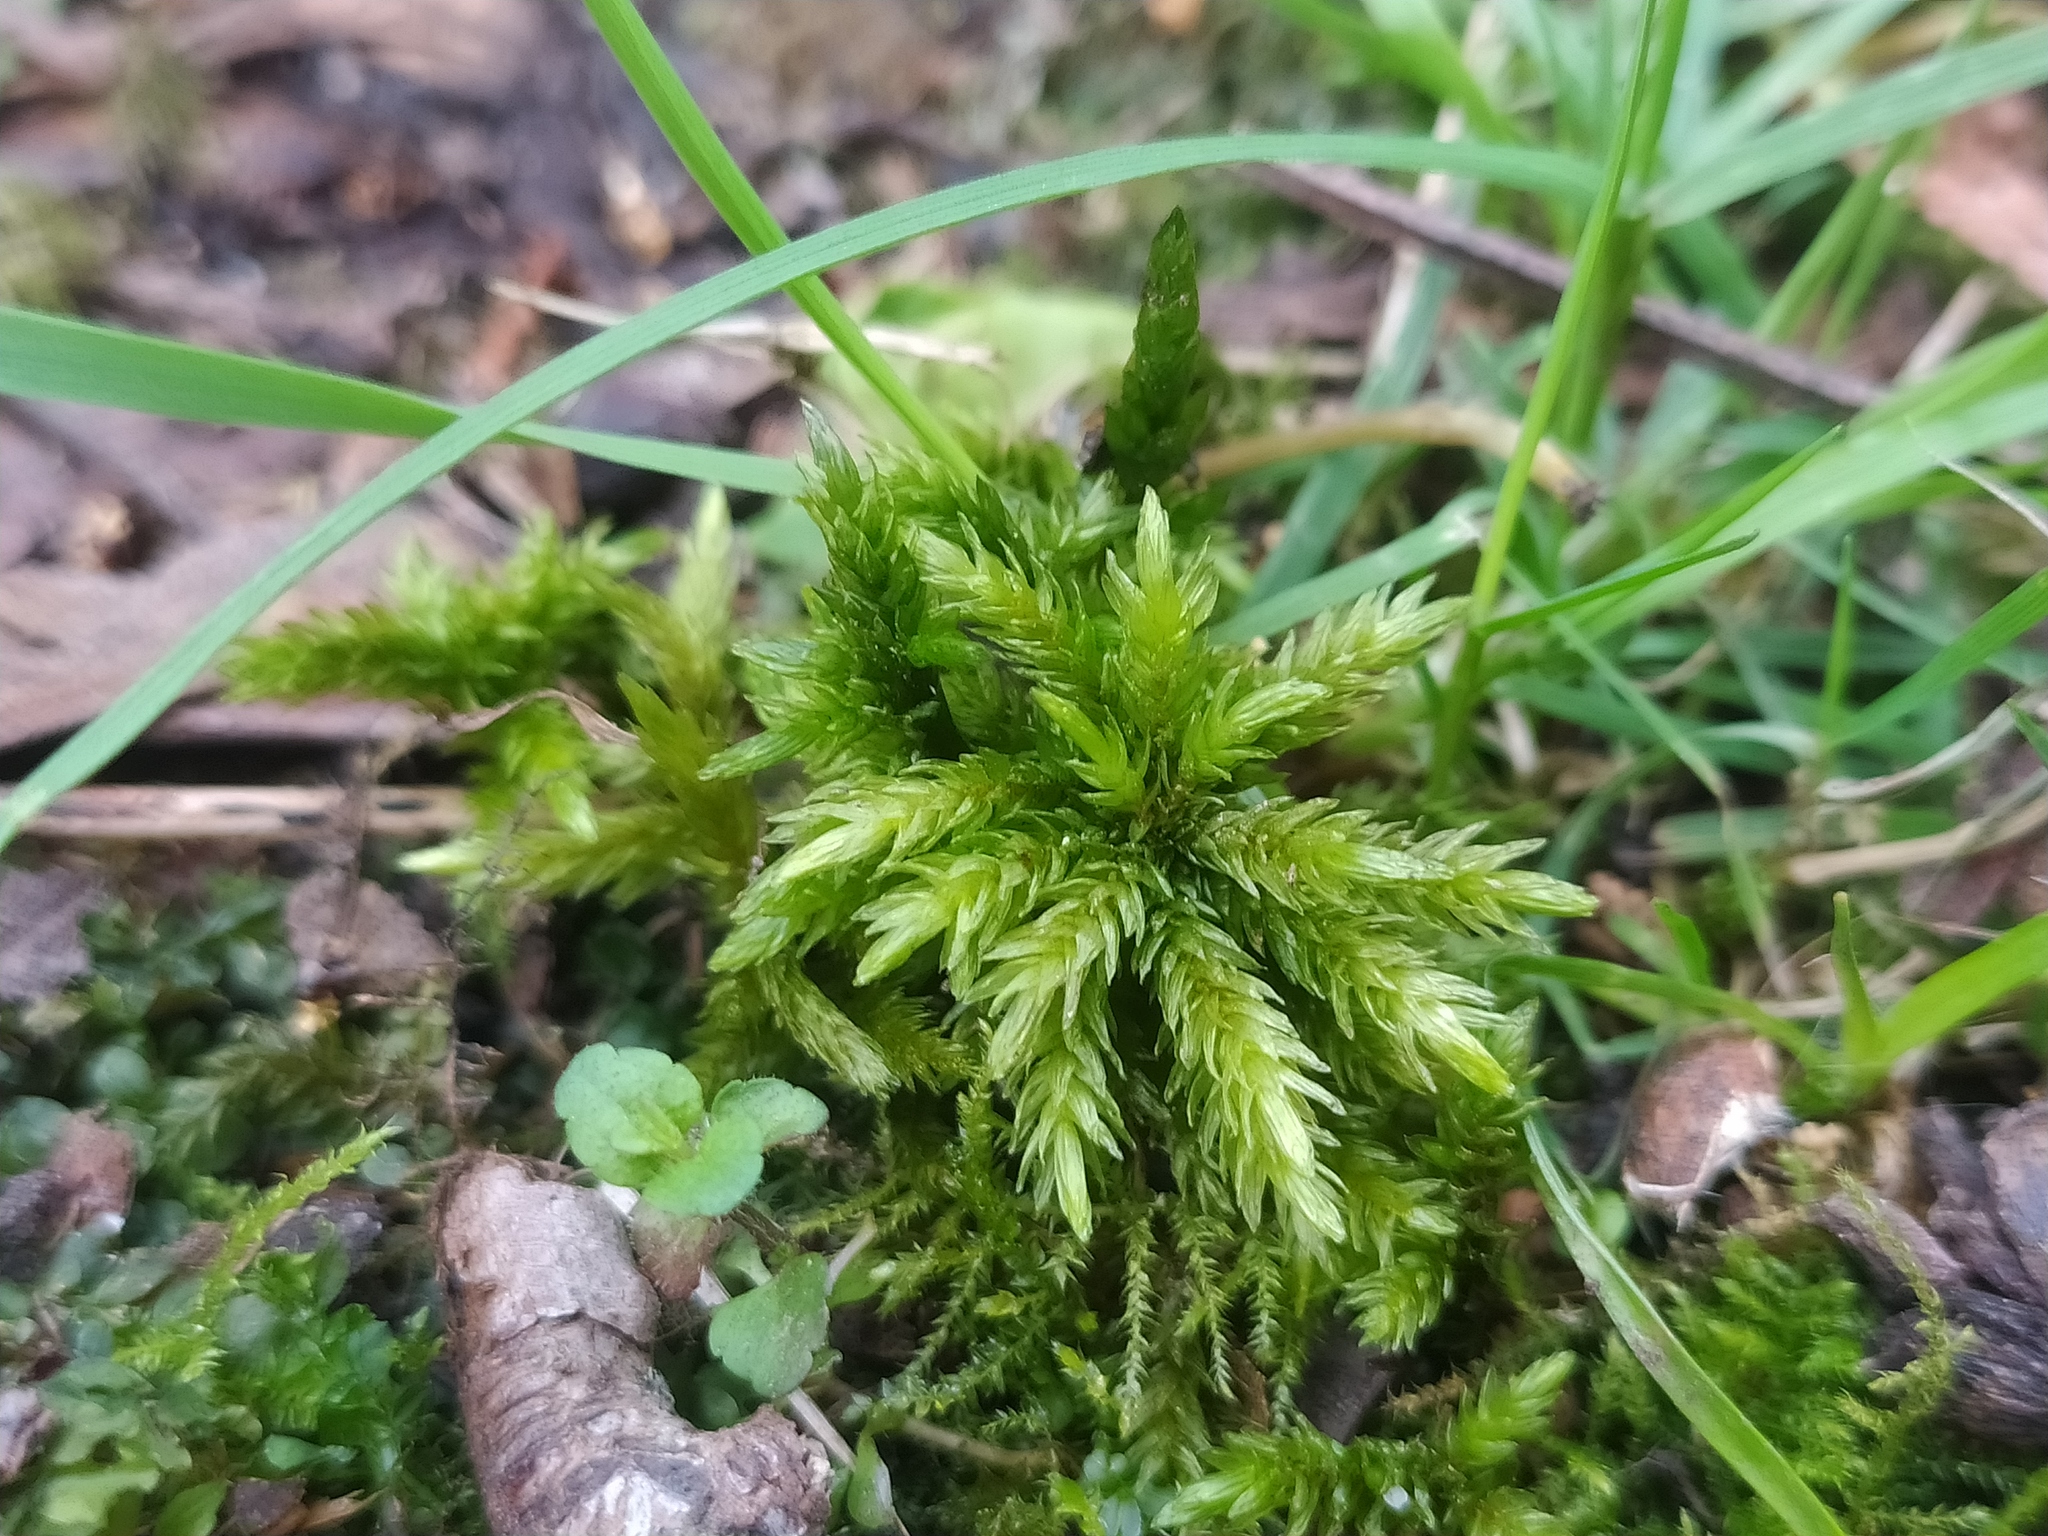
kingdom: Plantae
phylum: Bryophyta
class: Bryopsida
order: Hypnales
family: Climaciaceae
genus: Climacium
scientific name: Climacium dendroides
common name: Northern tree moss
